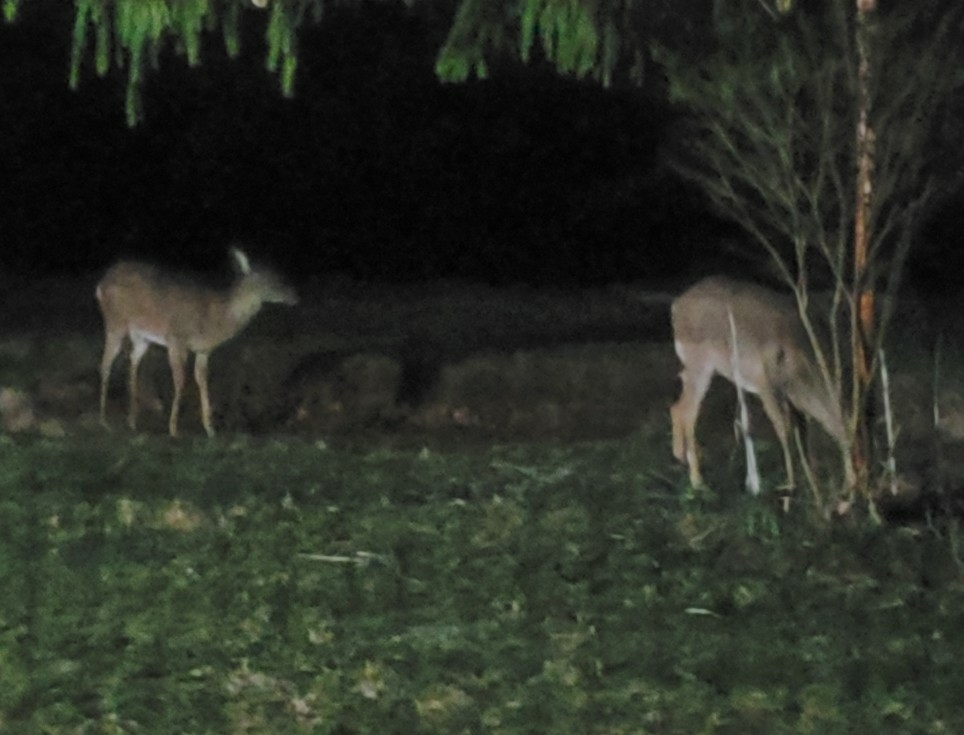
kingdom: Animalia
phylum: Chordata
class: Mammalia
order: Artiodactyla
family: Cervidae
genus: Odocoileus
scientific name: Odocoileus virginianus
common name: White-tailed deer
